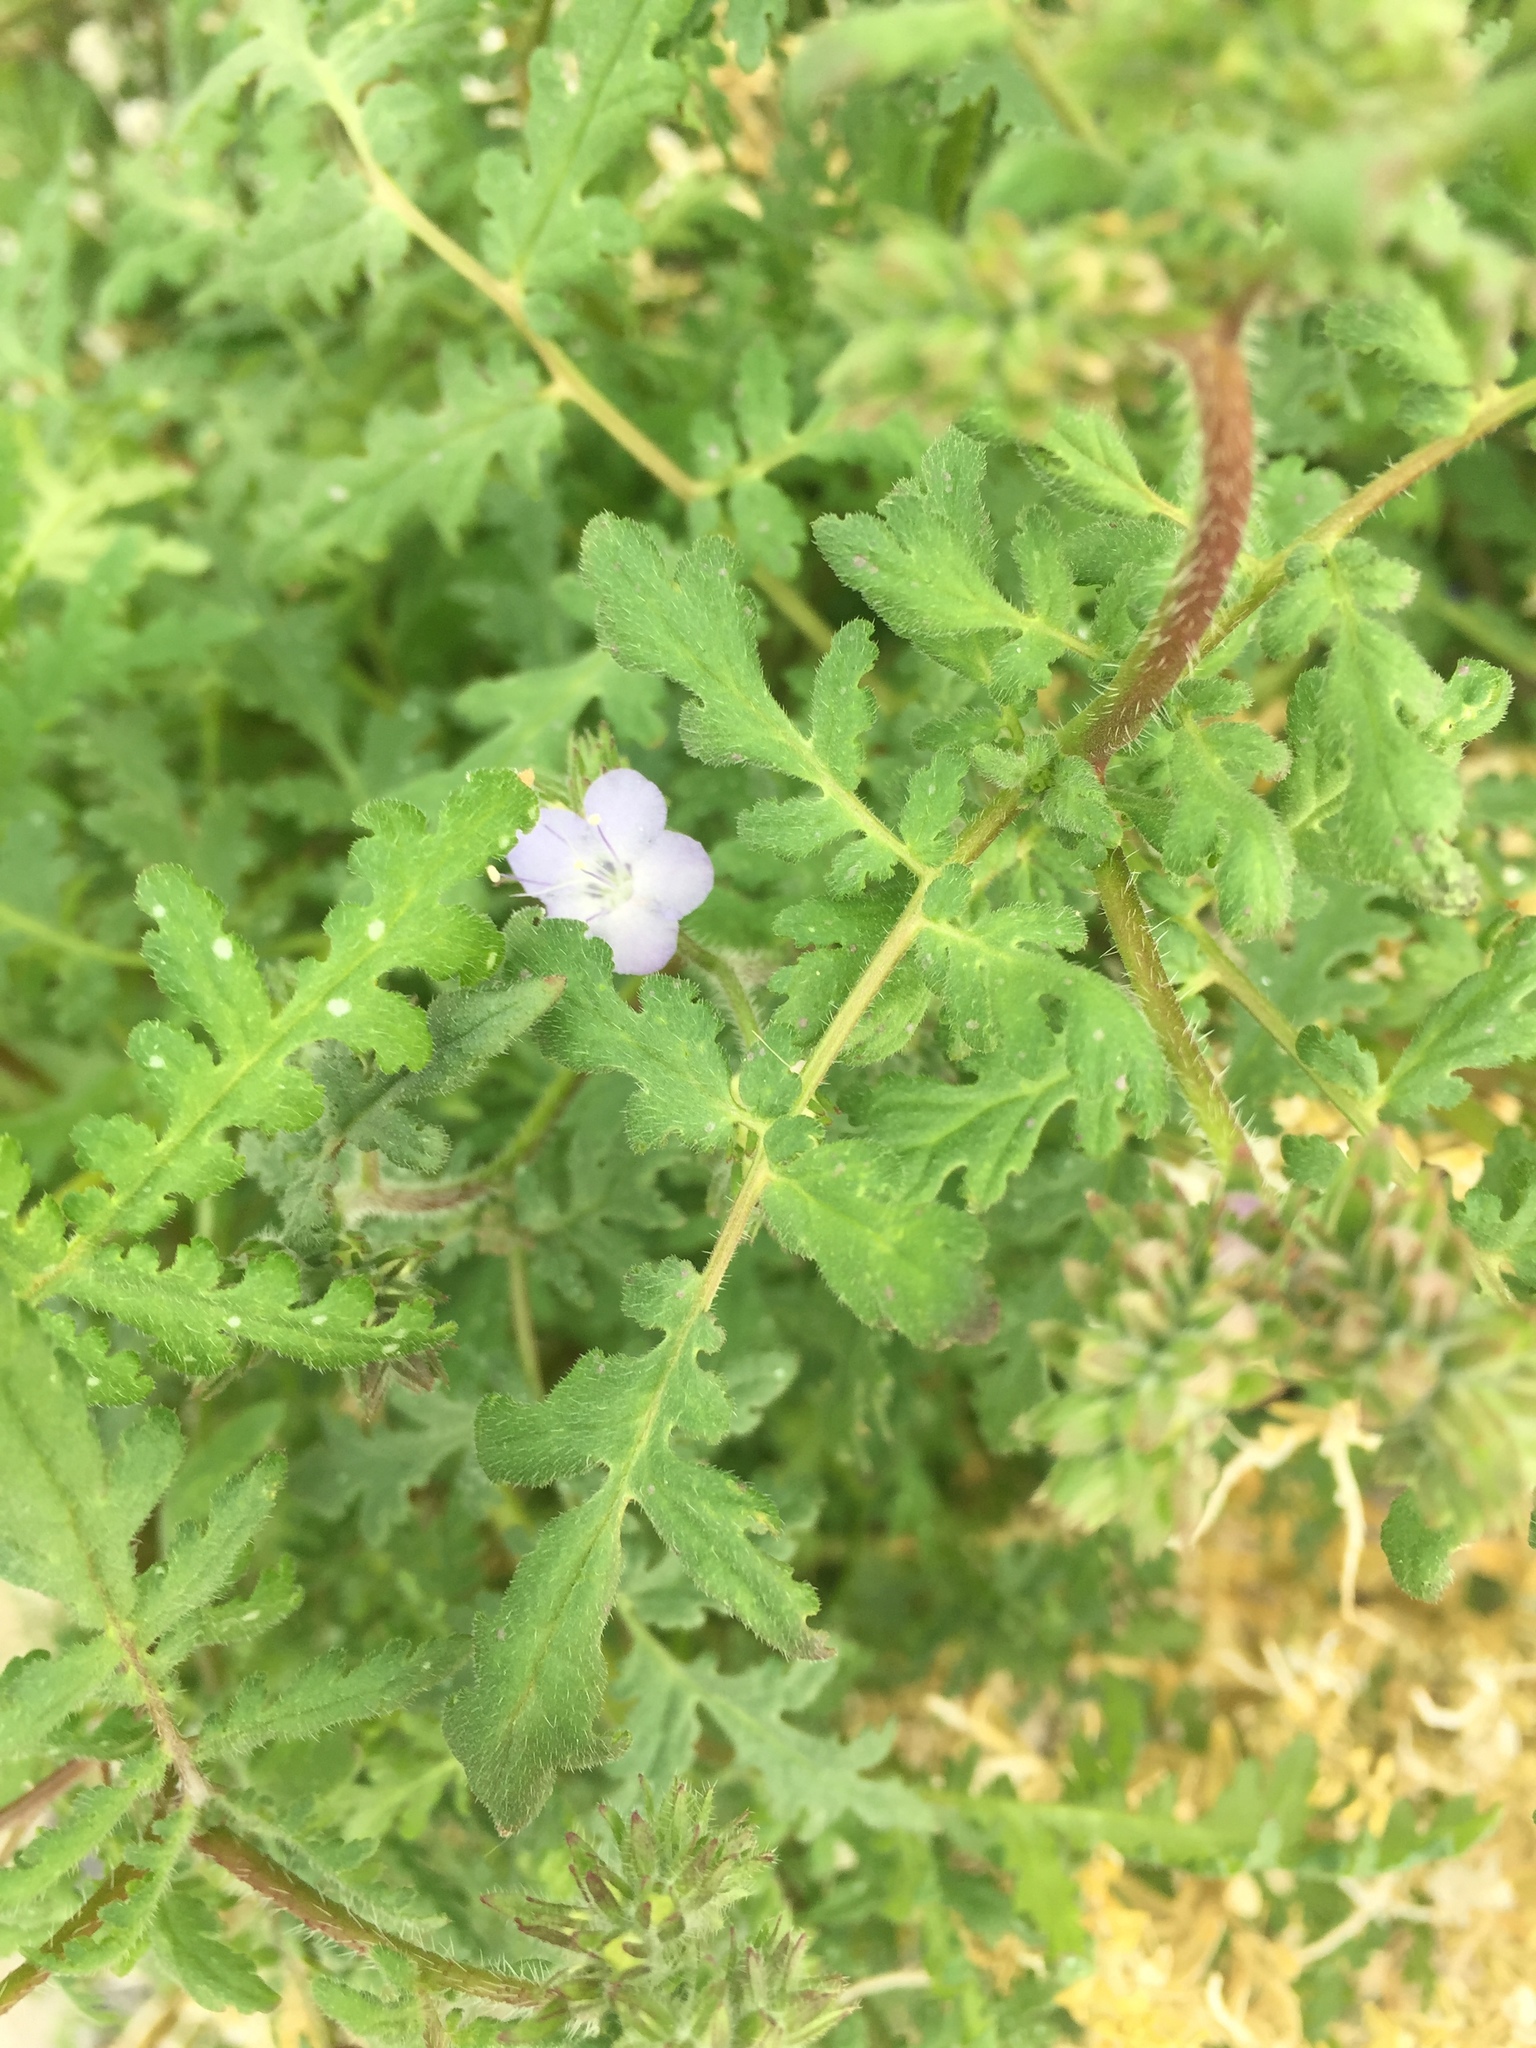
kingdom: Plantae
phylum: Tracheophyta
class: Magnoliopsida
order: Boraginales
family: Hydrophyllaceae
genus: Phacelia
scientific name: Phacelia distans
